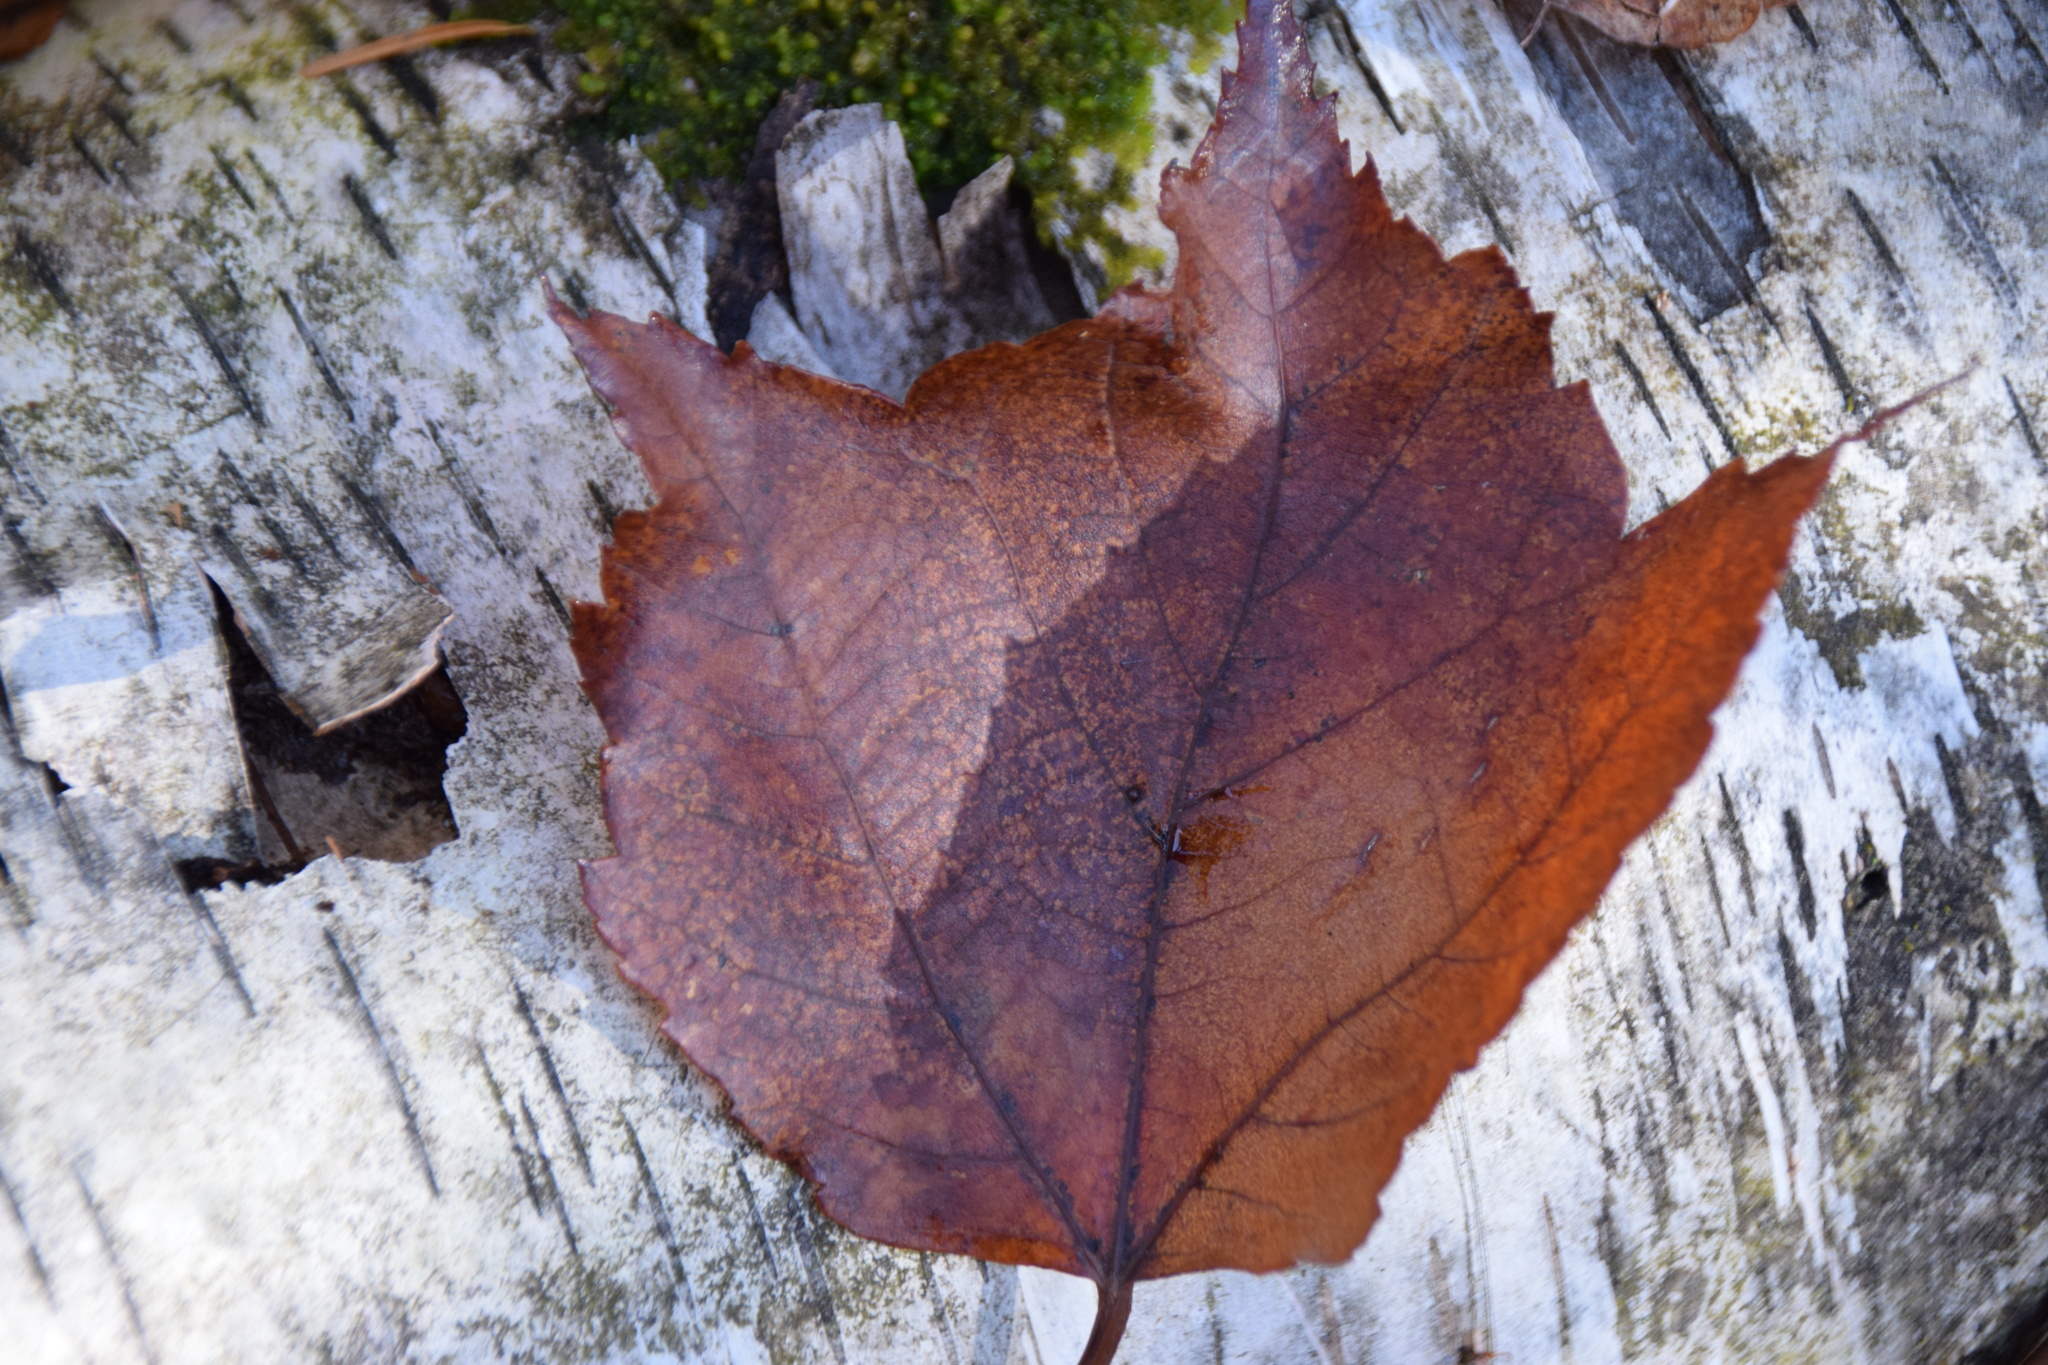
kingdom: Plantae
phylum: Tracheophyta
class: Magnoliopsida
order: Sapindales
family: Sapindaceae
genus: Acer
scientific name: Acer rubrum
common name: Red maple
